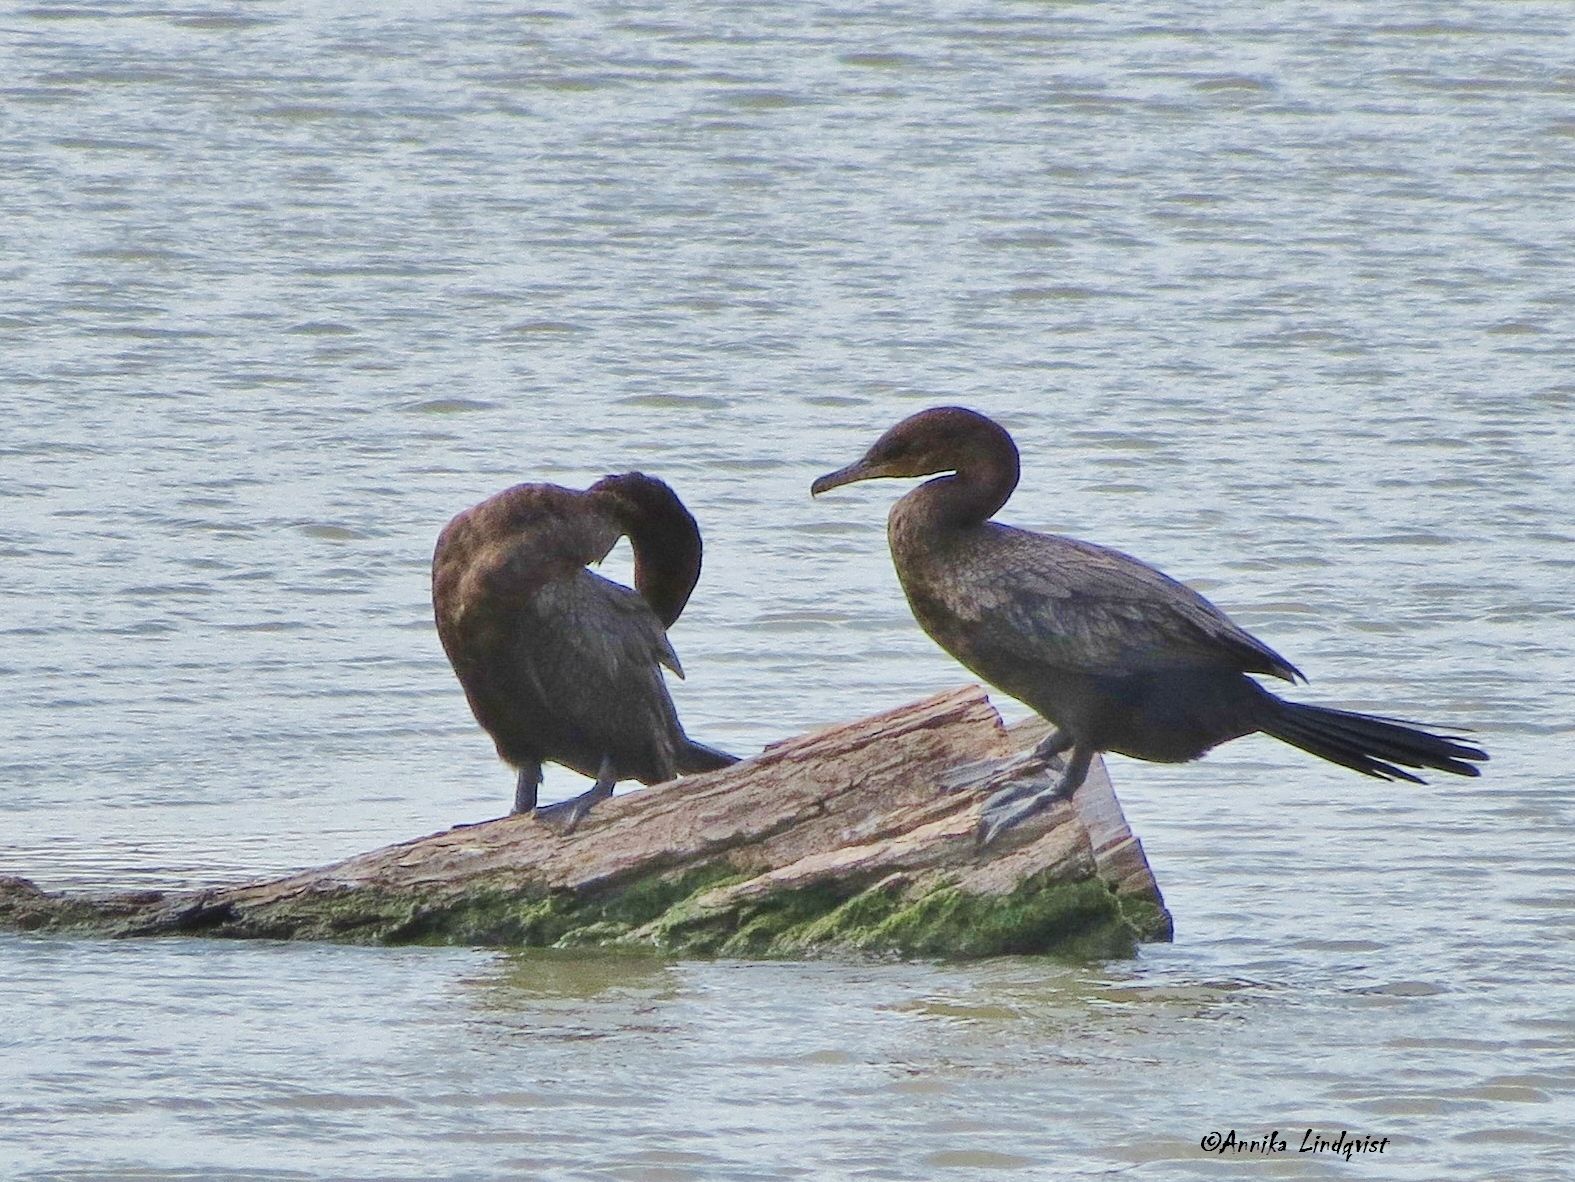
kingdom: Animalia
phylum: Chordata
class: Aves
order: Suliformes
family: Phalacrocoracidae
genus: Phalacrocorax
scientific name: Phalacrocorax brasilianus
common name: Neotropic cormorant
